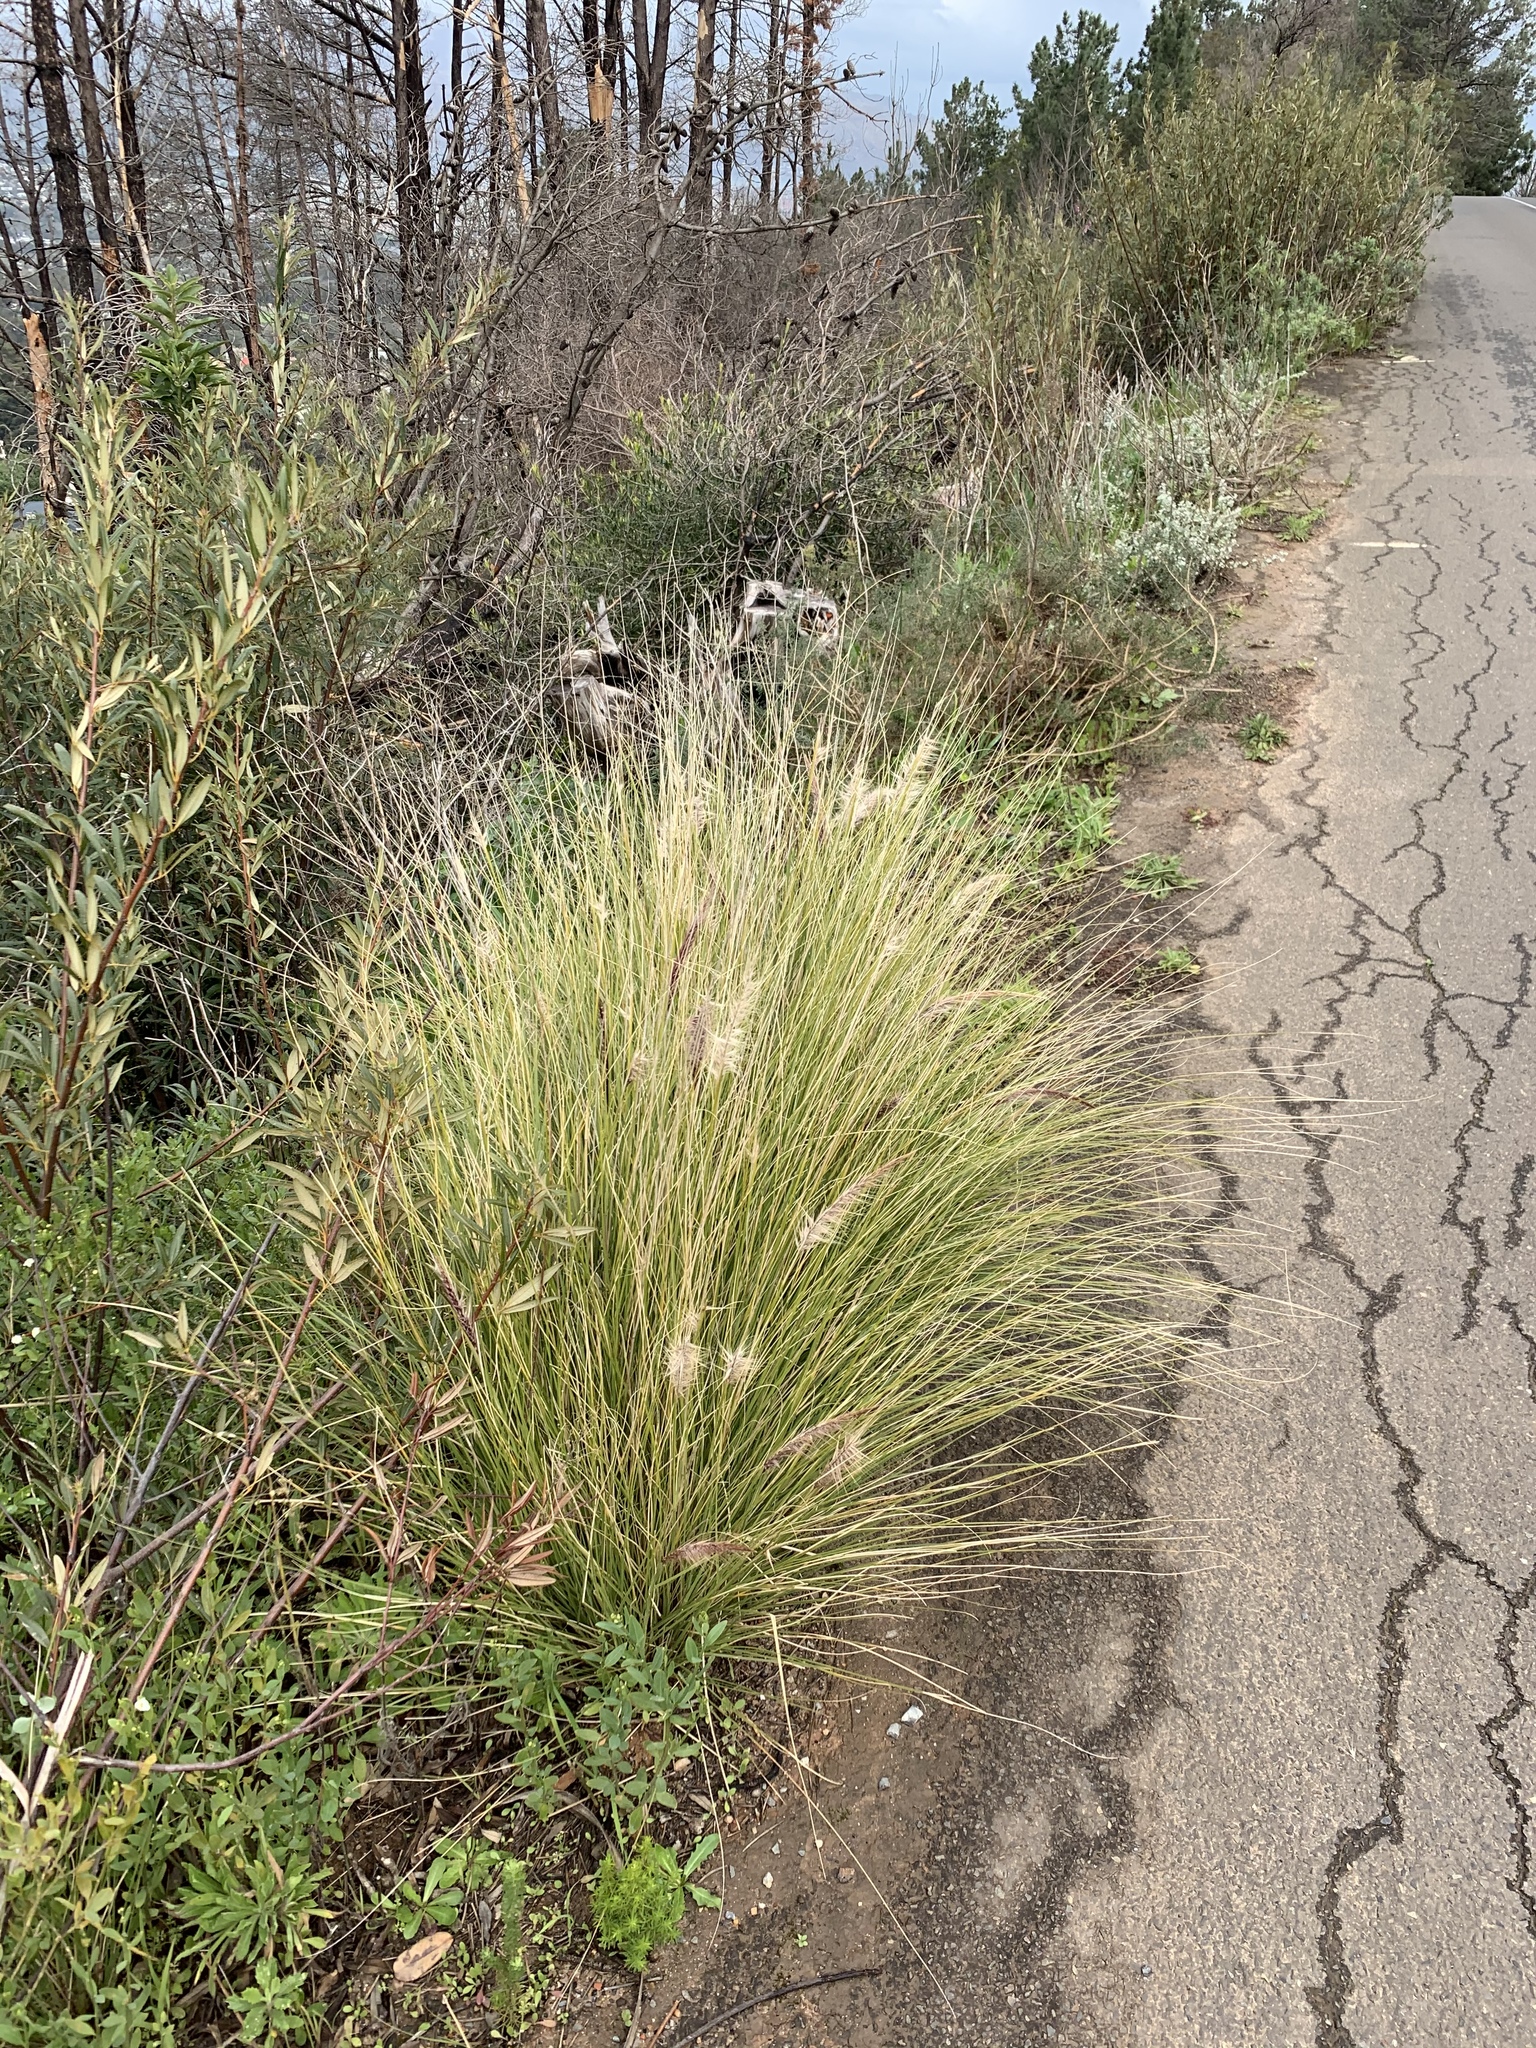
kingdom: Plantae
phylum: Tracheophyta
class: Liliopsida
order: Poales
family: Poaceae
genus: Cenchrus
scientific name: Cenchrus setaceus
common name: Crimson fountaingrass
